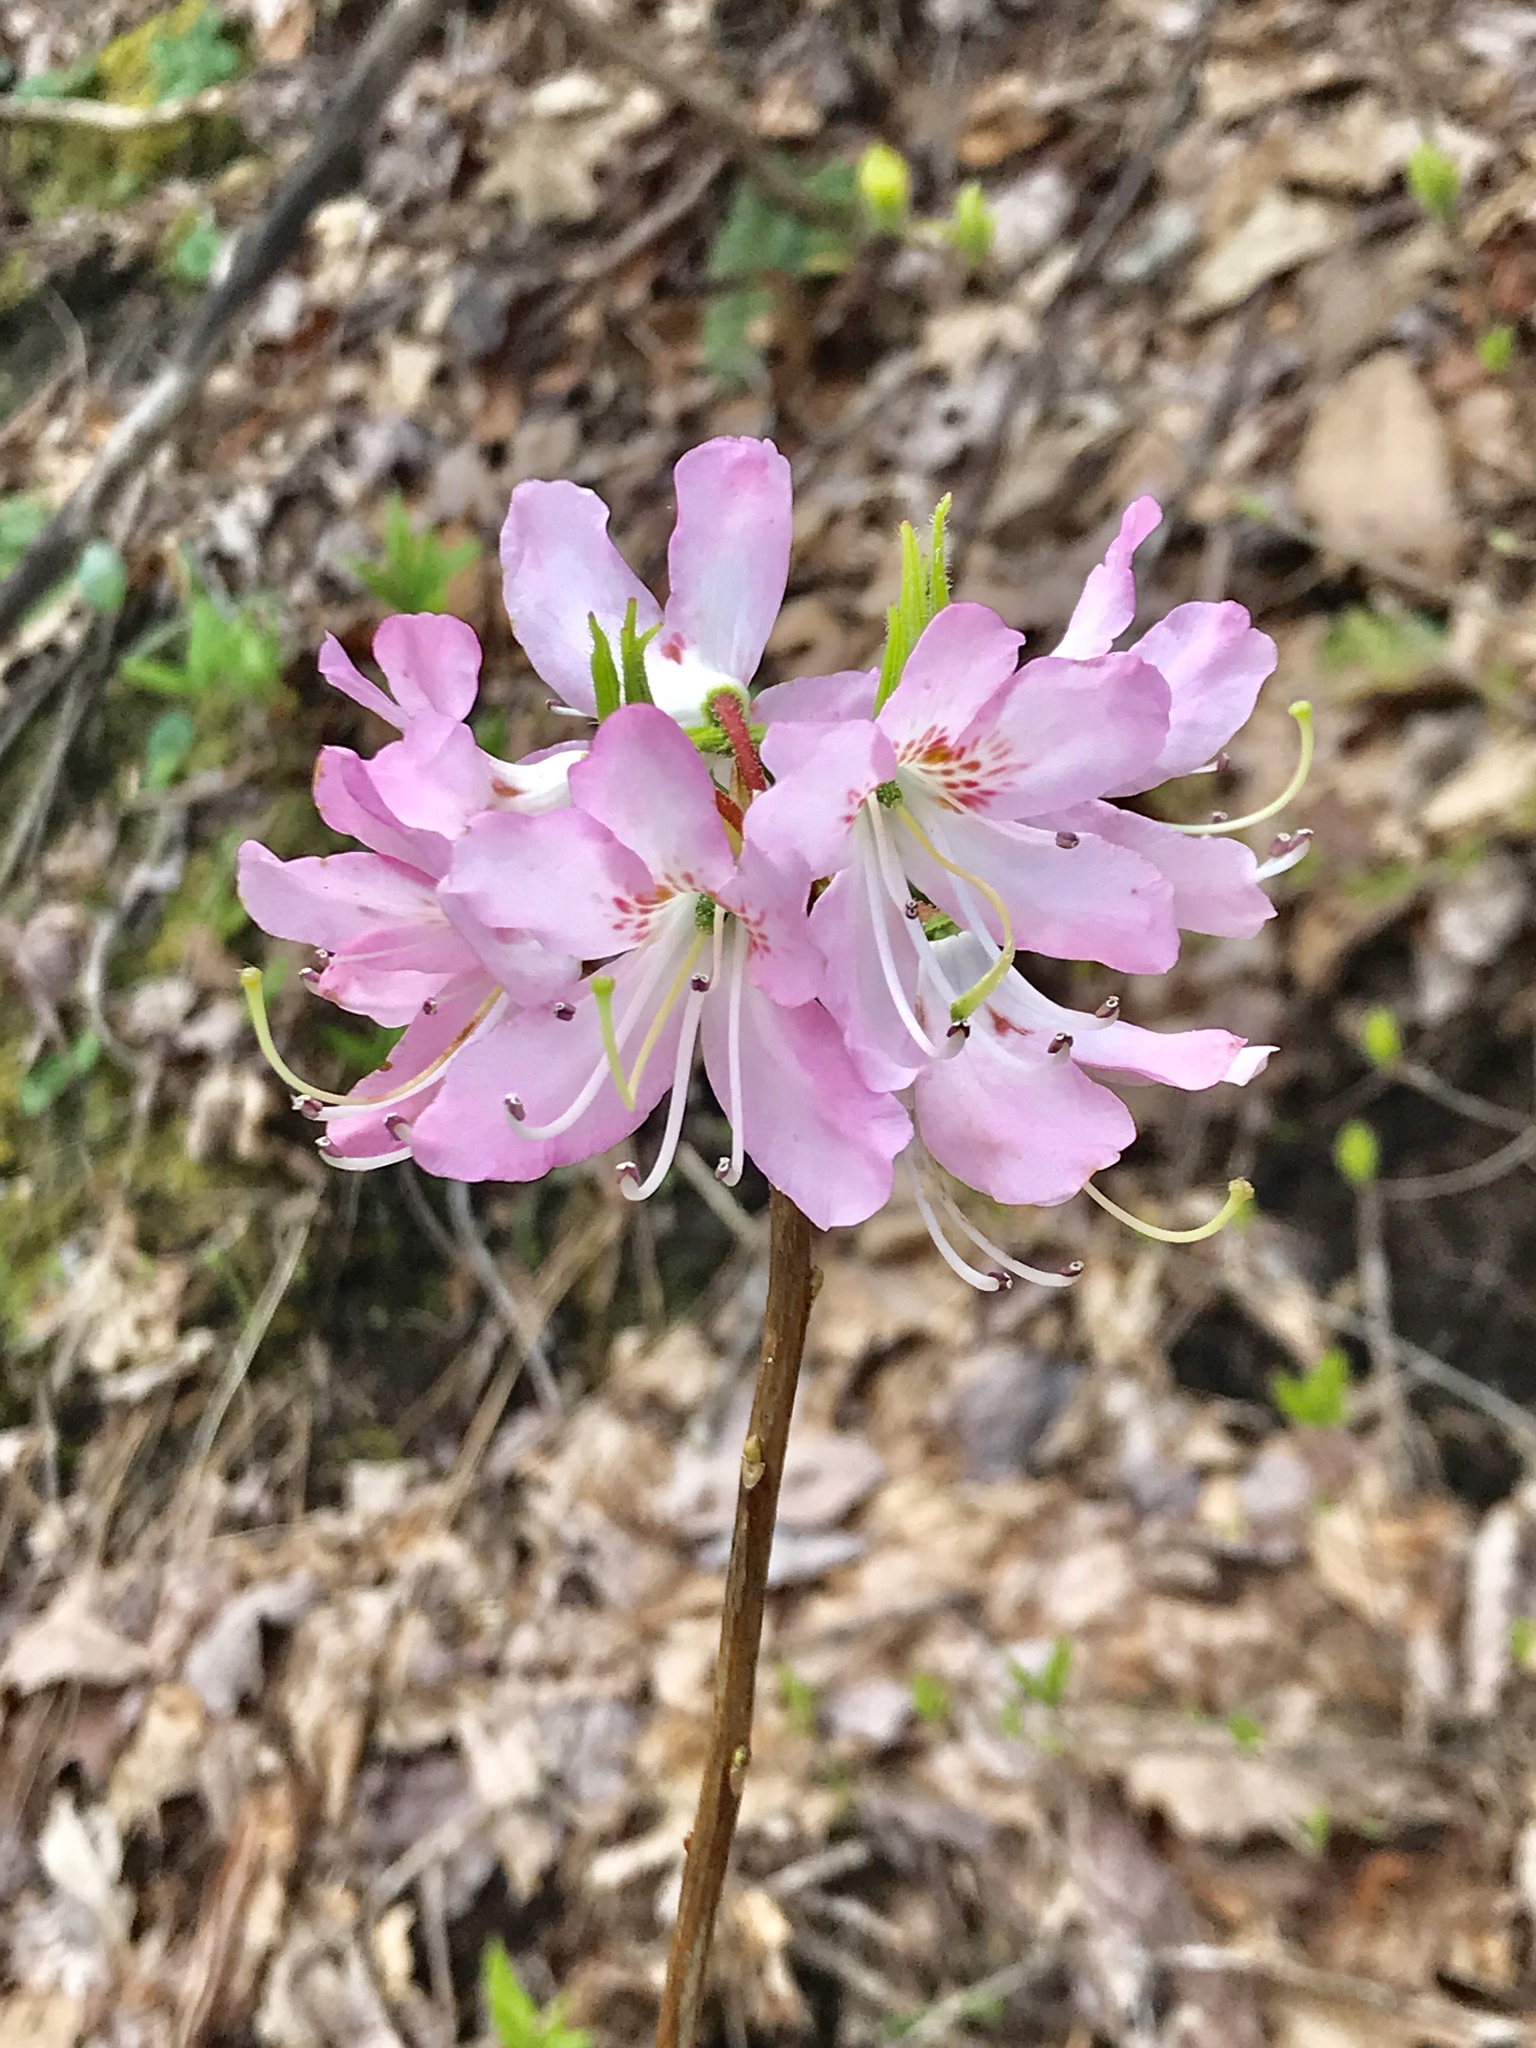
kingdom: Plantae
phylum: Tracheophyta
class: Magnoliopsida
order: Ericales
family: Ericaceae
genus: Rhododendron
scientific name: Rhododendron vaseyi
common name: Pink-shell azalea
